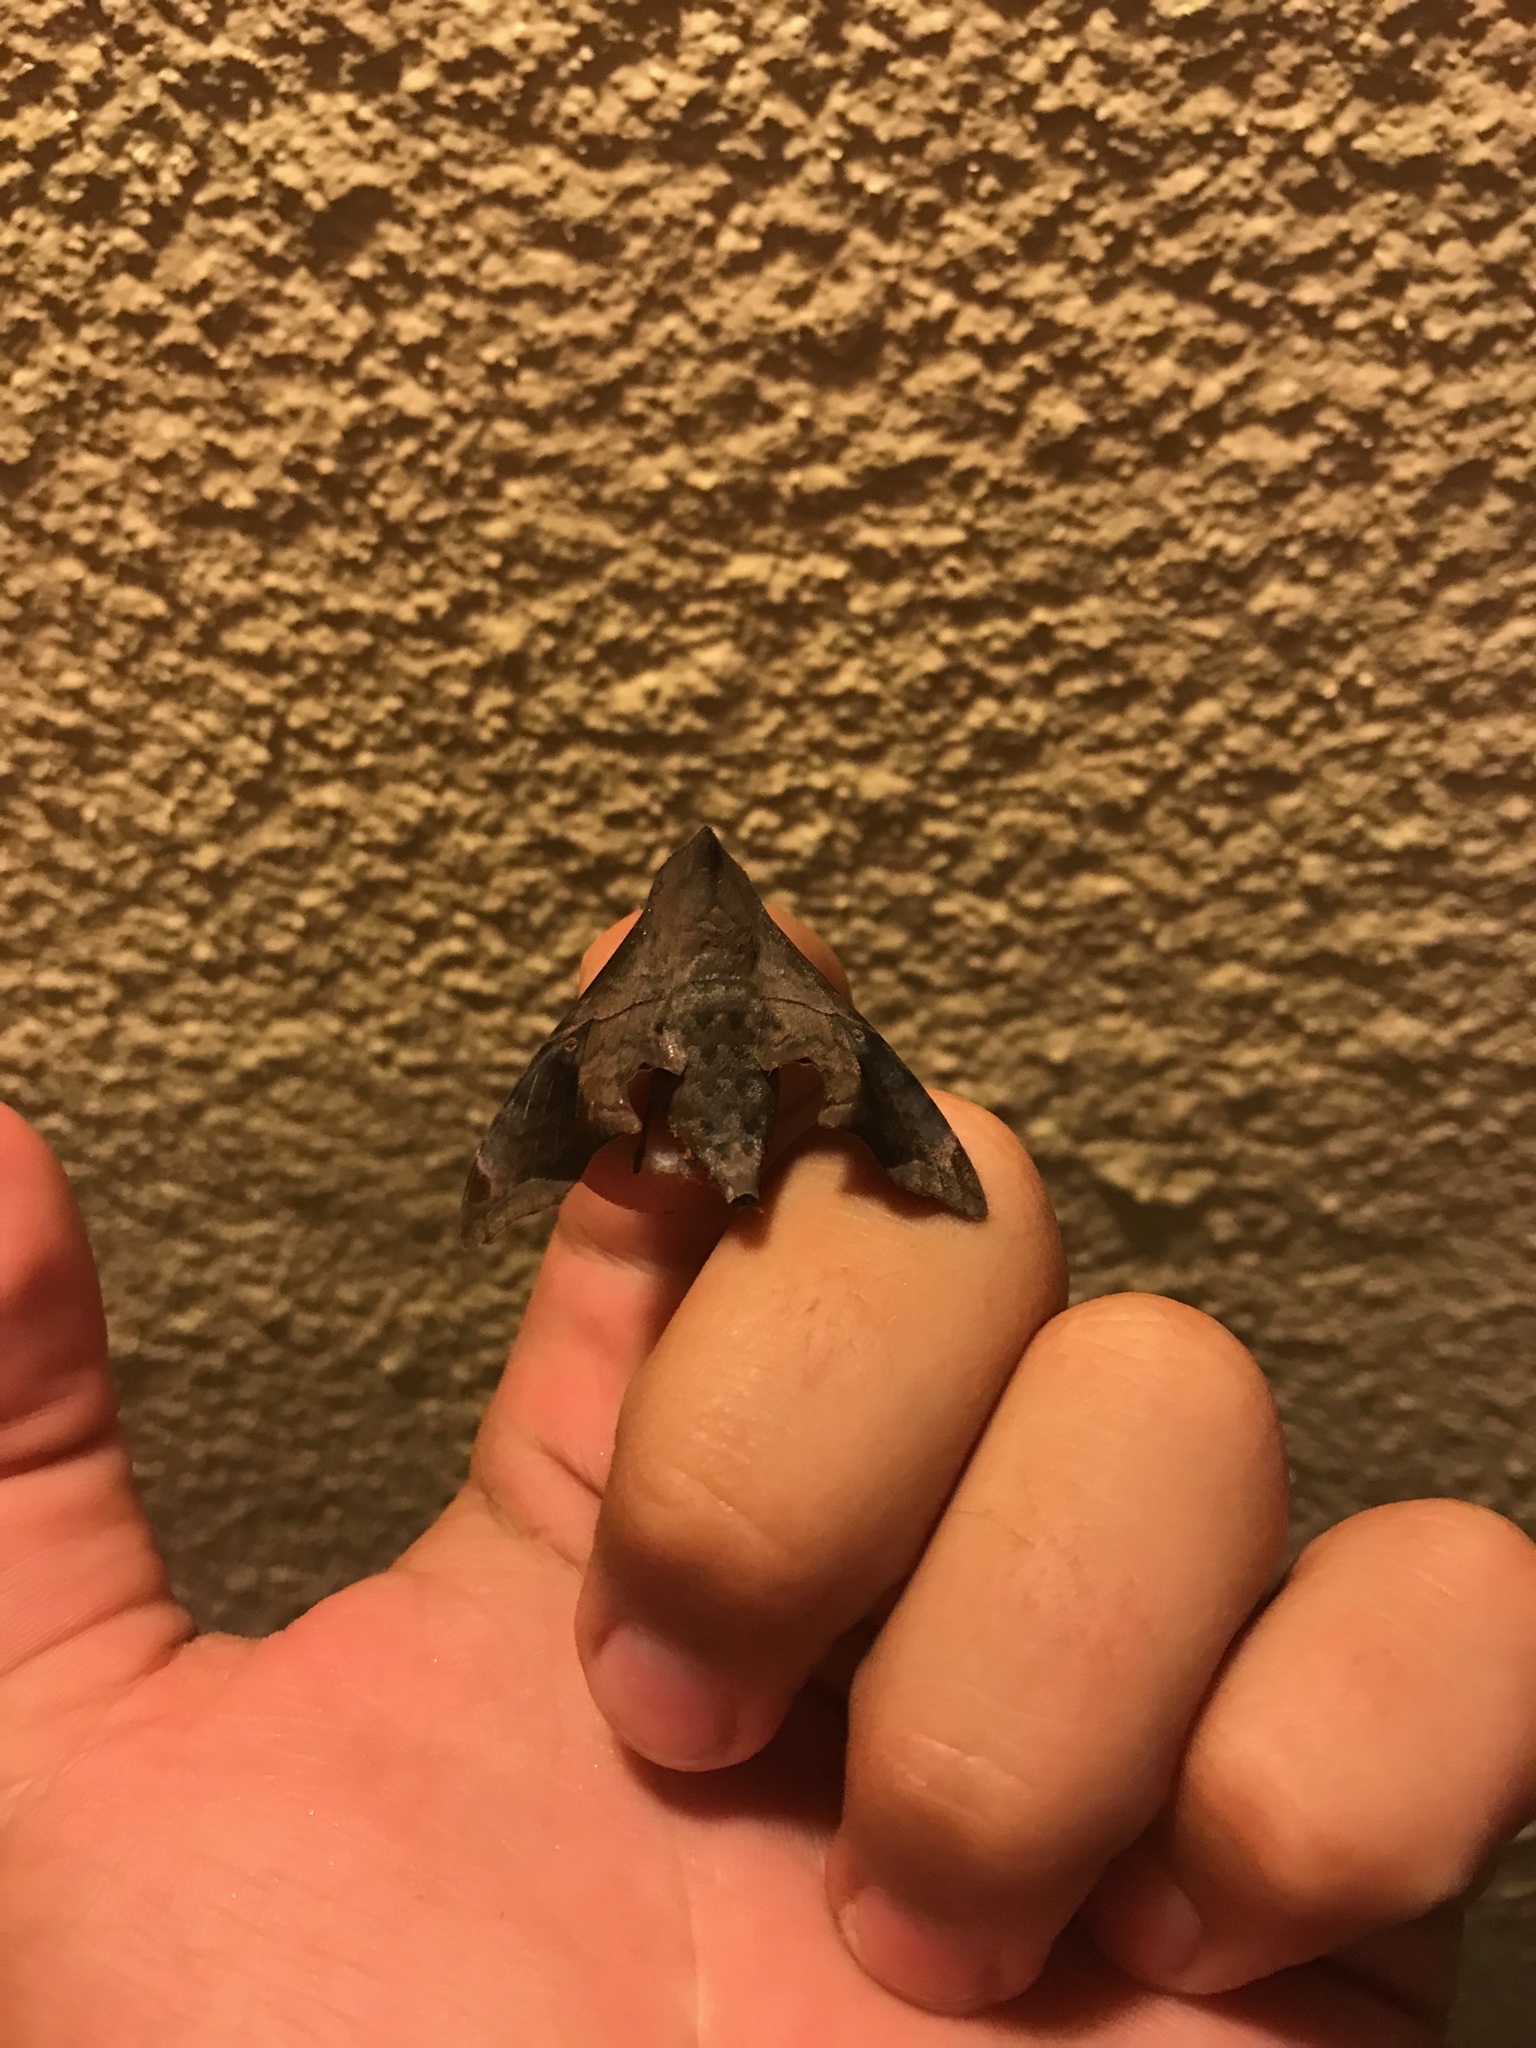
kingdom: Animalia
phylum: Arthropoda
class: Insecta
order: Lepidoptera
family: Sphingidae
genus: Enyo
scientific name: Enyo lugubris
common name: Mournful sphinx
